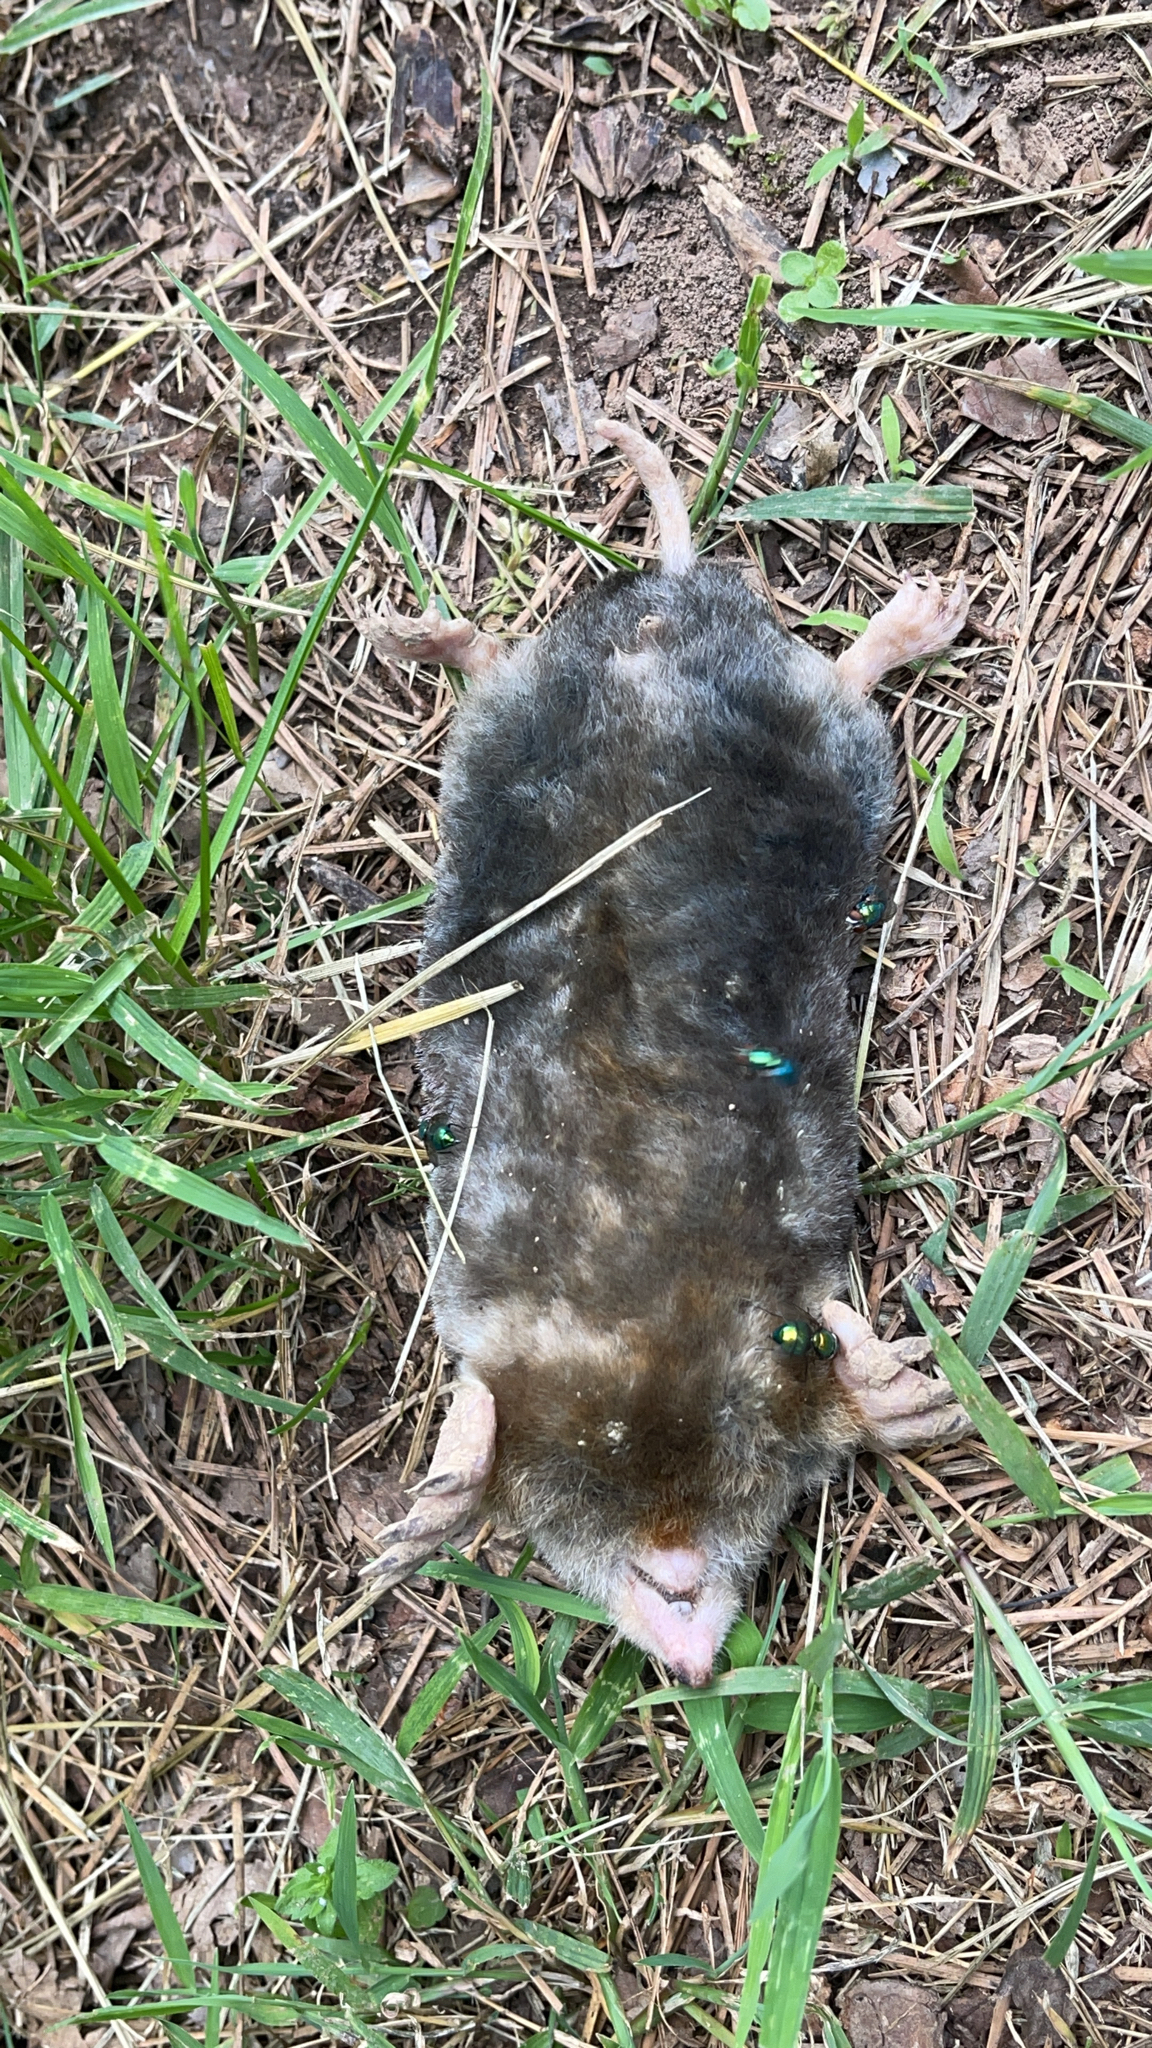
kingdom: Animalia
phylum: Chordata
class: Mammalia
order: Soricomorpha
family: Talpidae
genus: Scalopus
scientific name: Scalopus aquaticus
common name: Eastern mole
